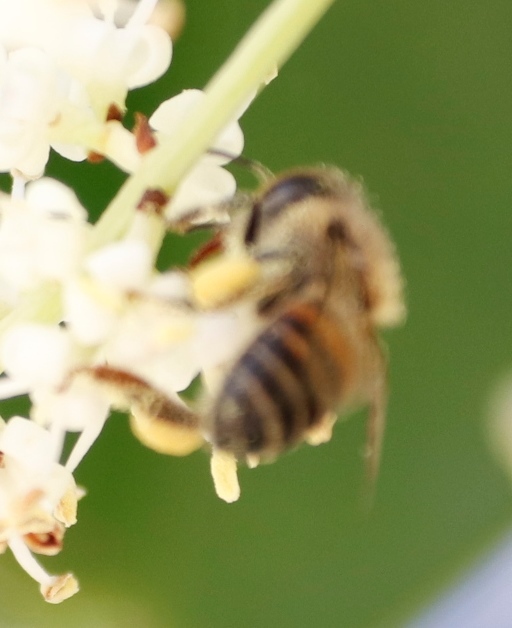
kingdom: Animalia
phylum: Arthropoda
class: Insecta
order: Hymenoptera
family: Apidae
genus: Apis
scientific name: Apis mellifera
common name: Honey bee
